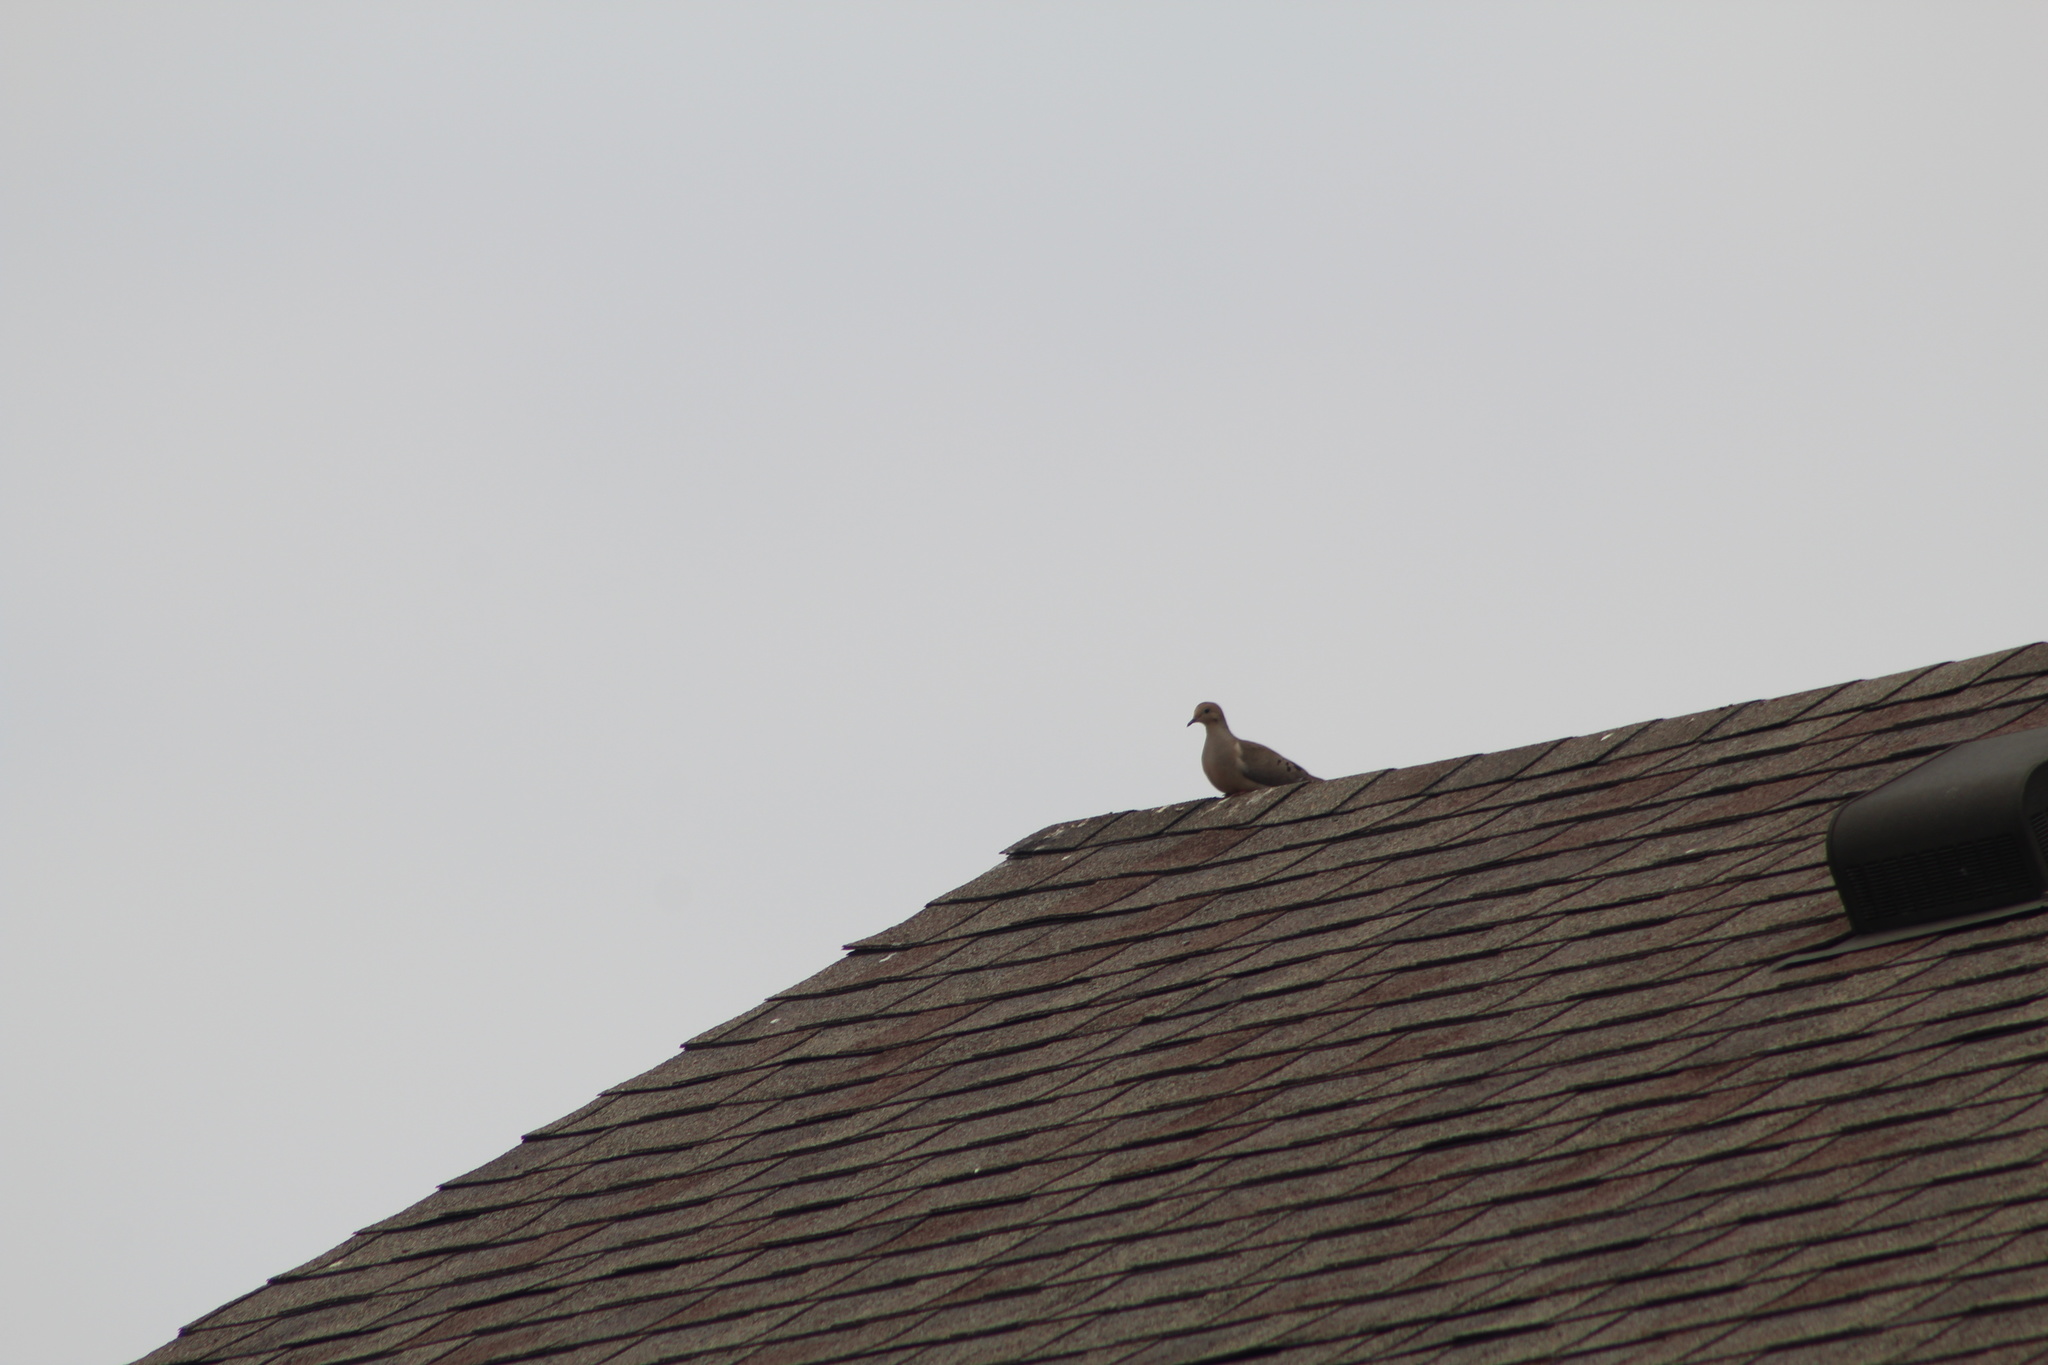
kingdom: Animalia
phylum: Chordata
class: Aves
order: Columbiformes
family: Columbidae
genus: Zenaida
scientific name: Zenaida macroura
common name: Mourning dove
